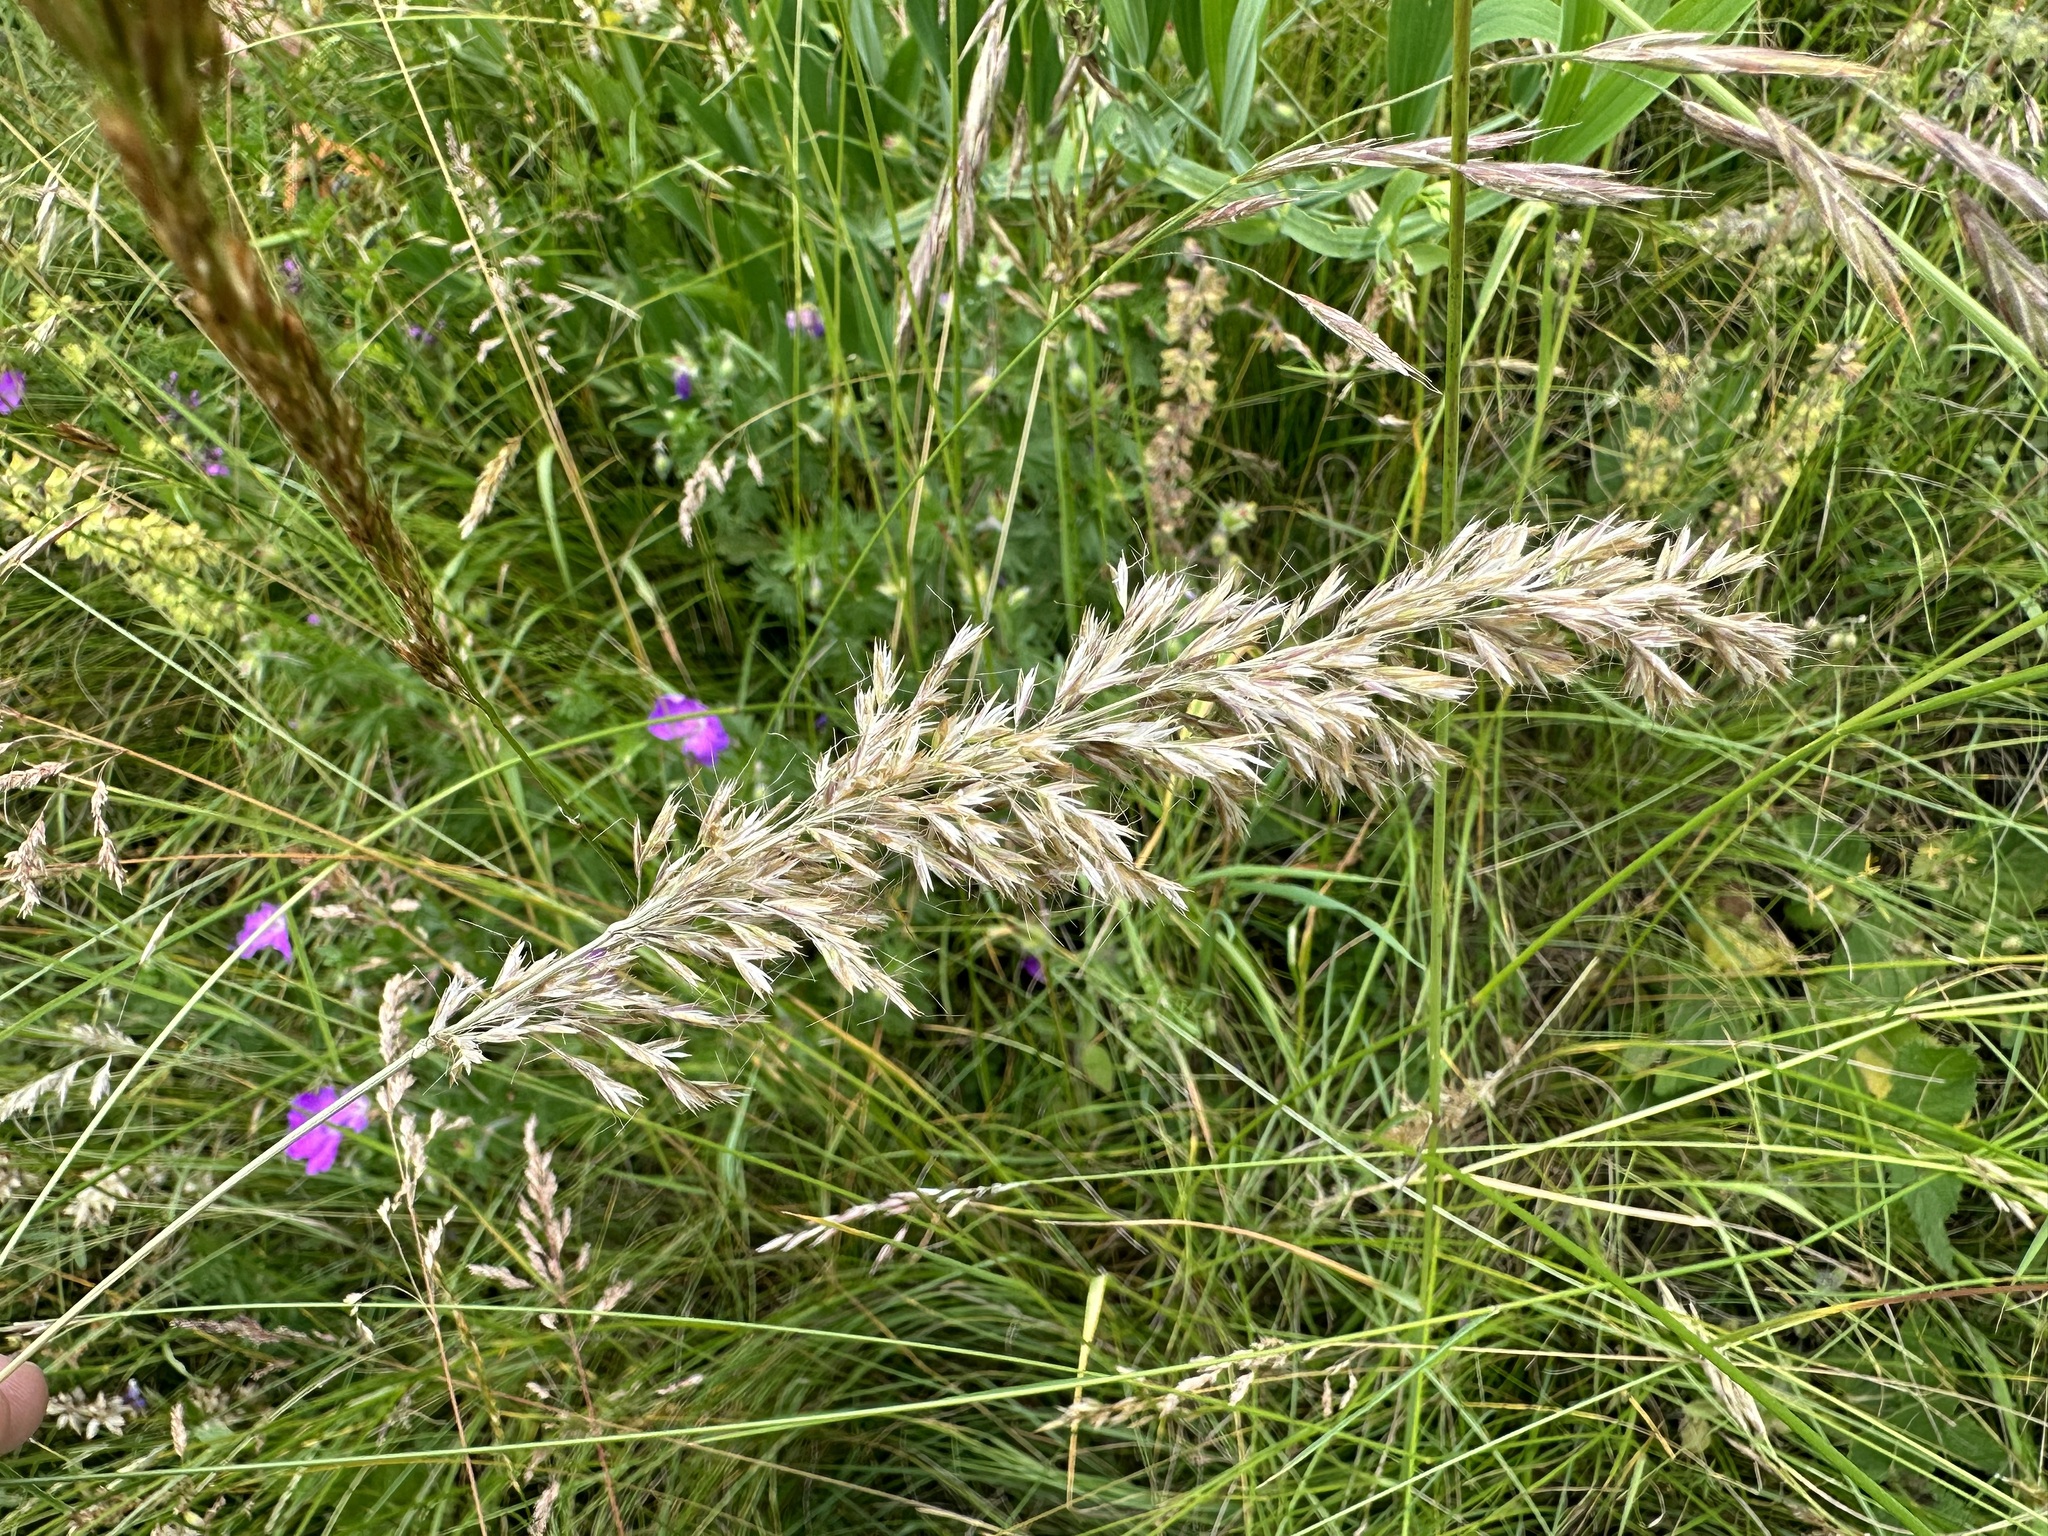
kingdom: Plantae
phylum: Tracheophyta
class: Liliopsida
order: Poales
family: Poaceae
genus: Avenula
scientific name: Avenula pubescens
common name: Downy alpine oatgrass
